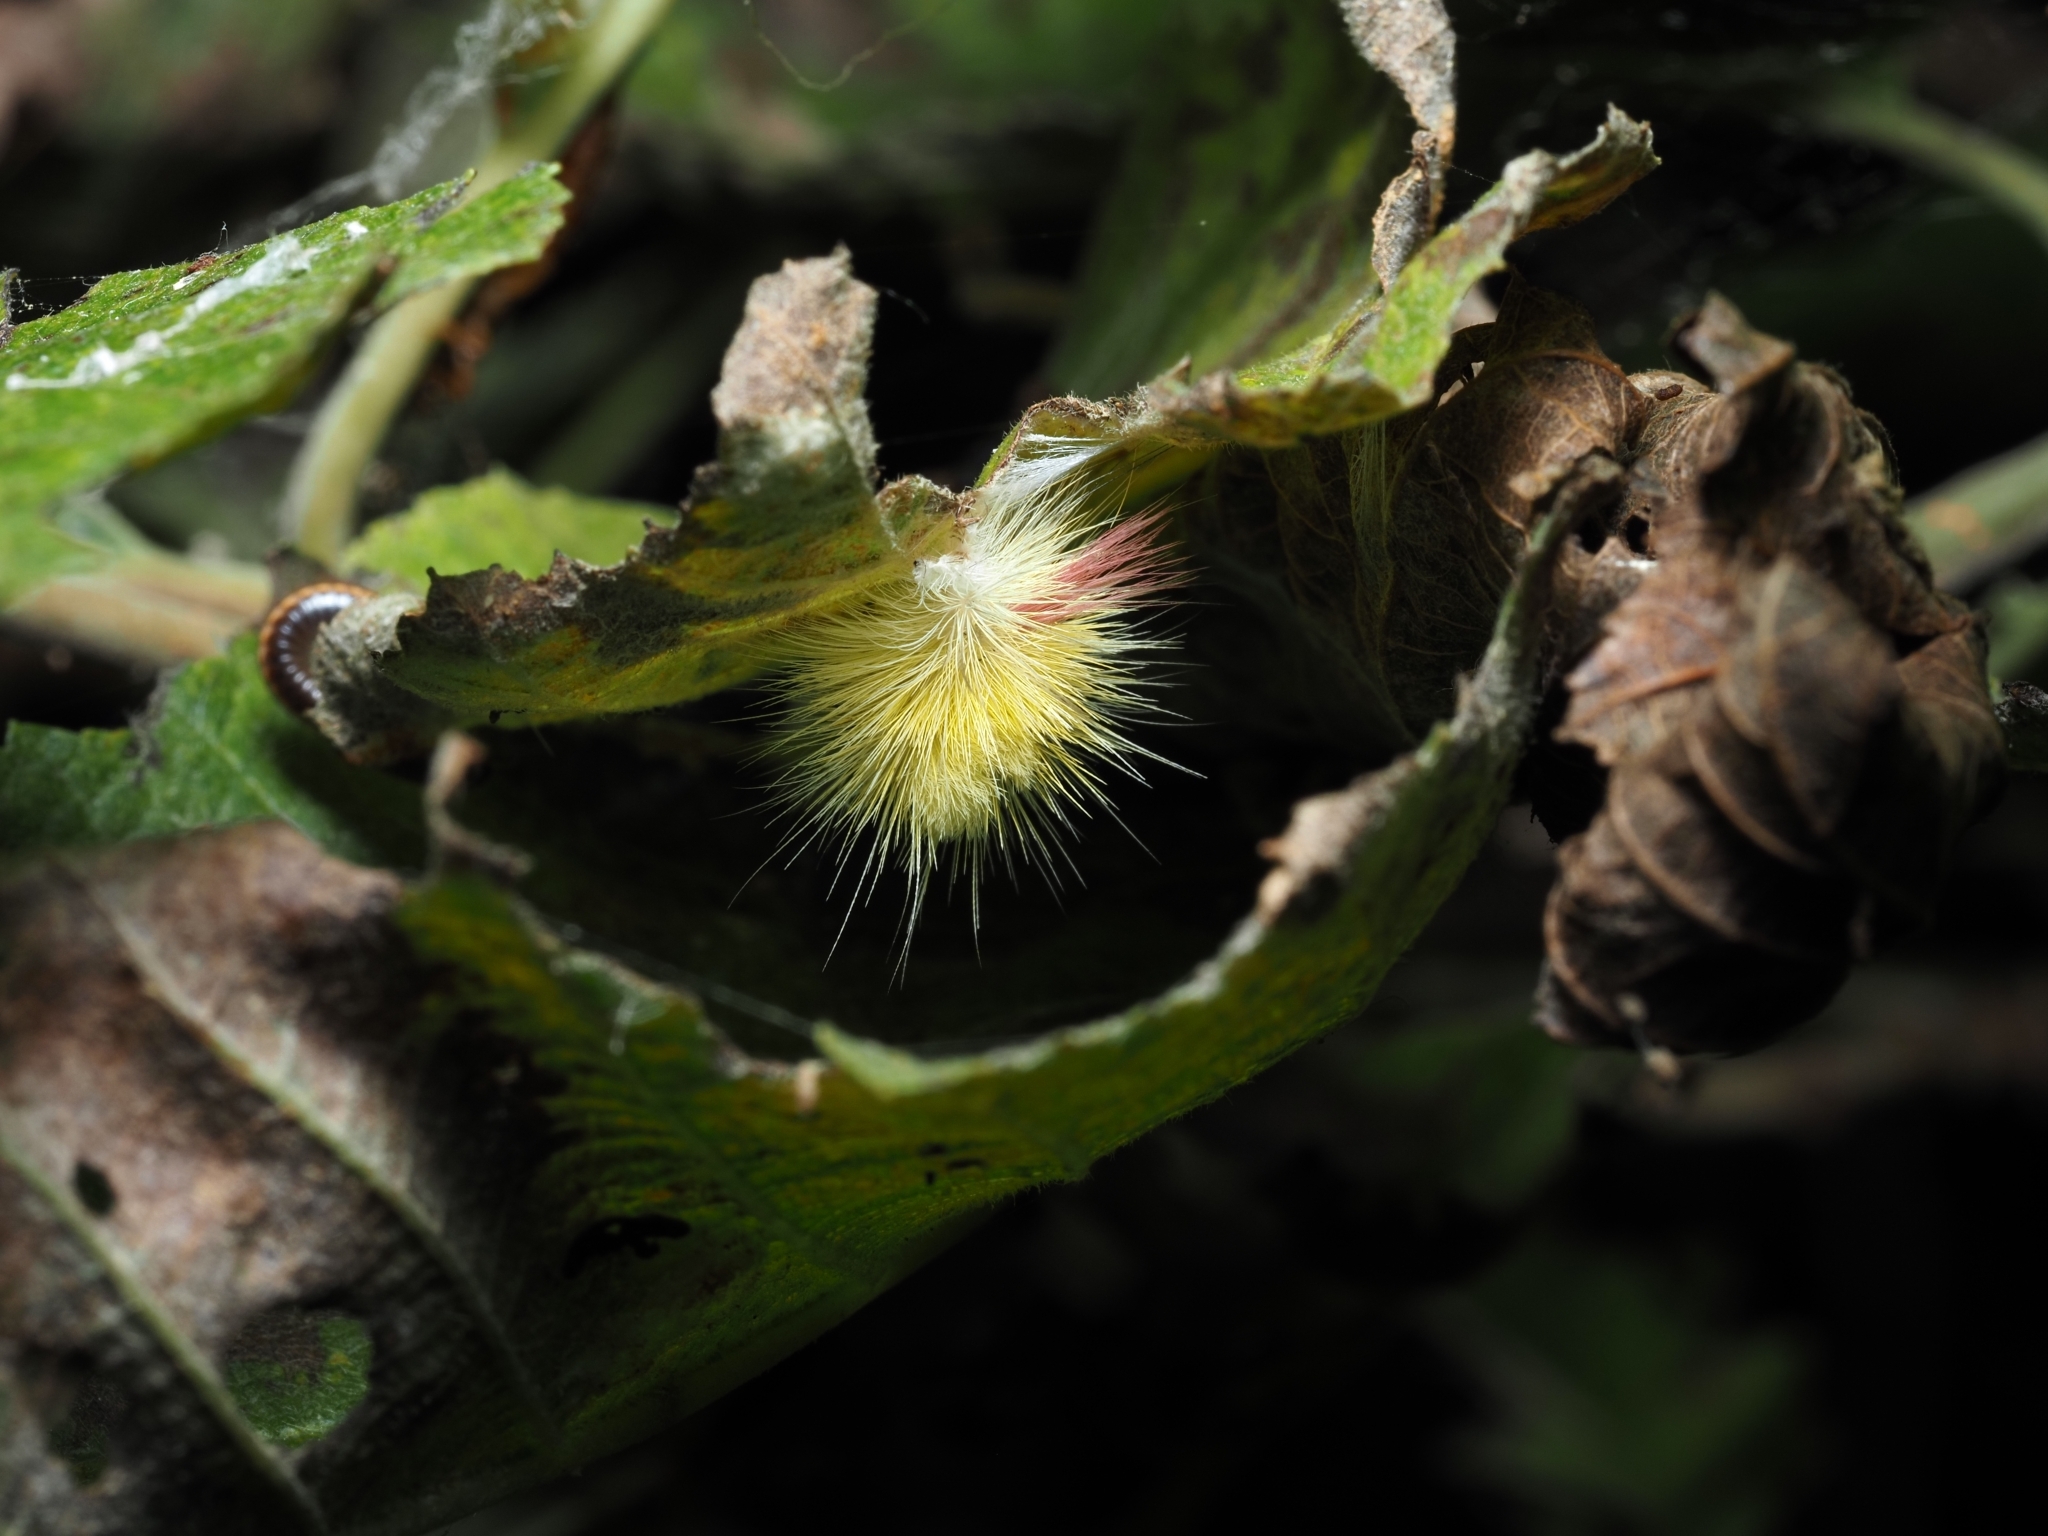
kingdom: Animalia
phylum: Arthropoda
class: Insecta
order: Lepidoptera
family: Erebidae
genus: Calliteara
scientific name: Calliteara pudibunda
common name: Pale tussock
